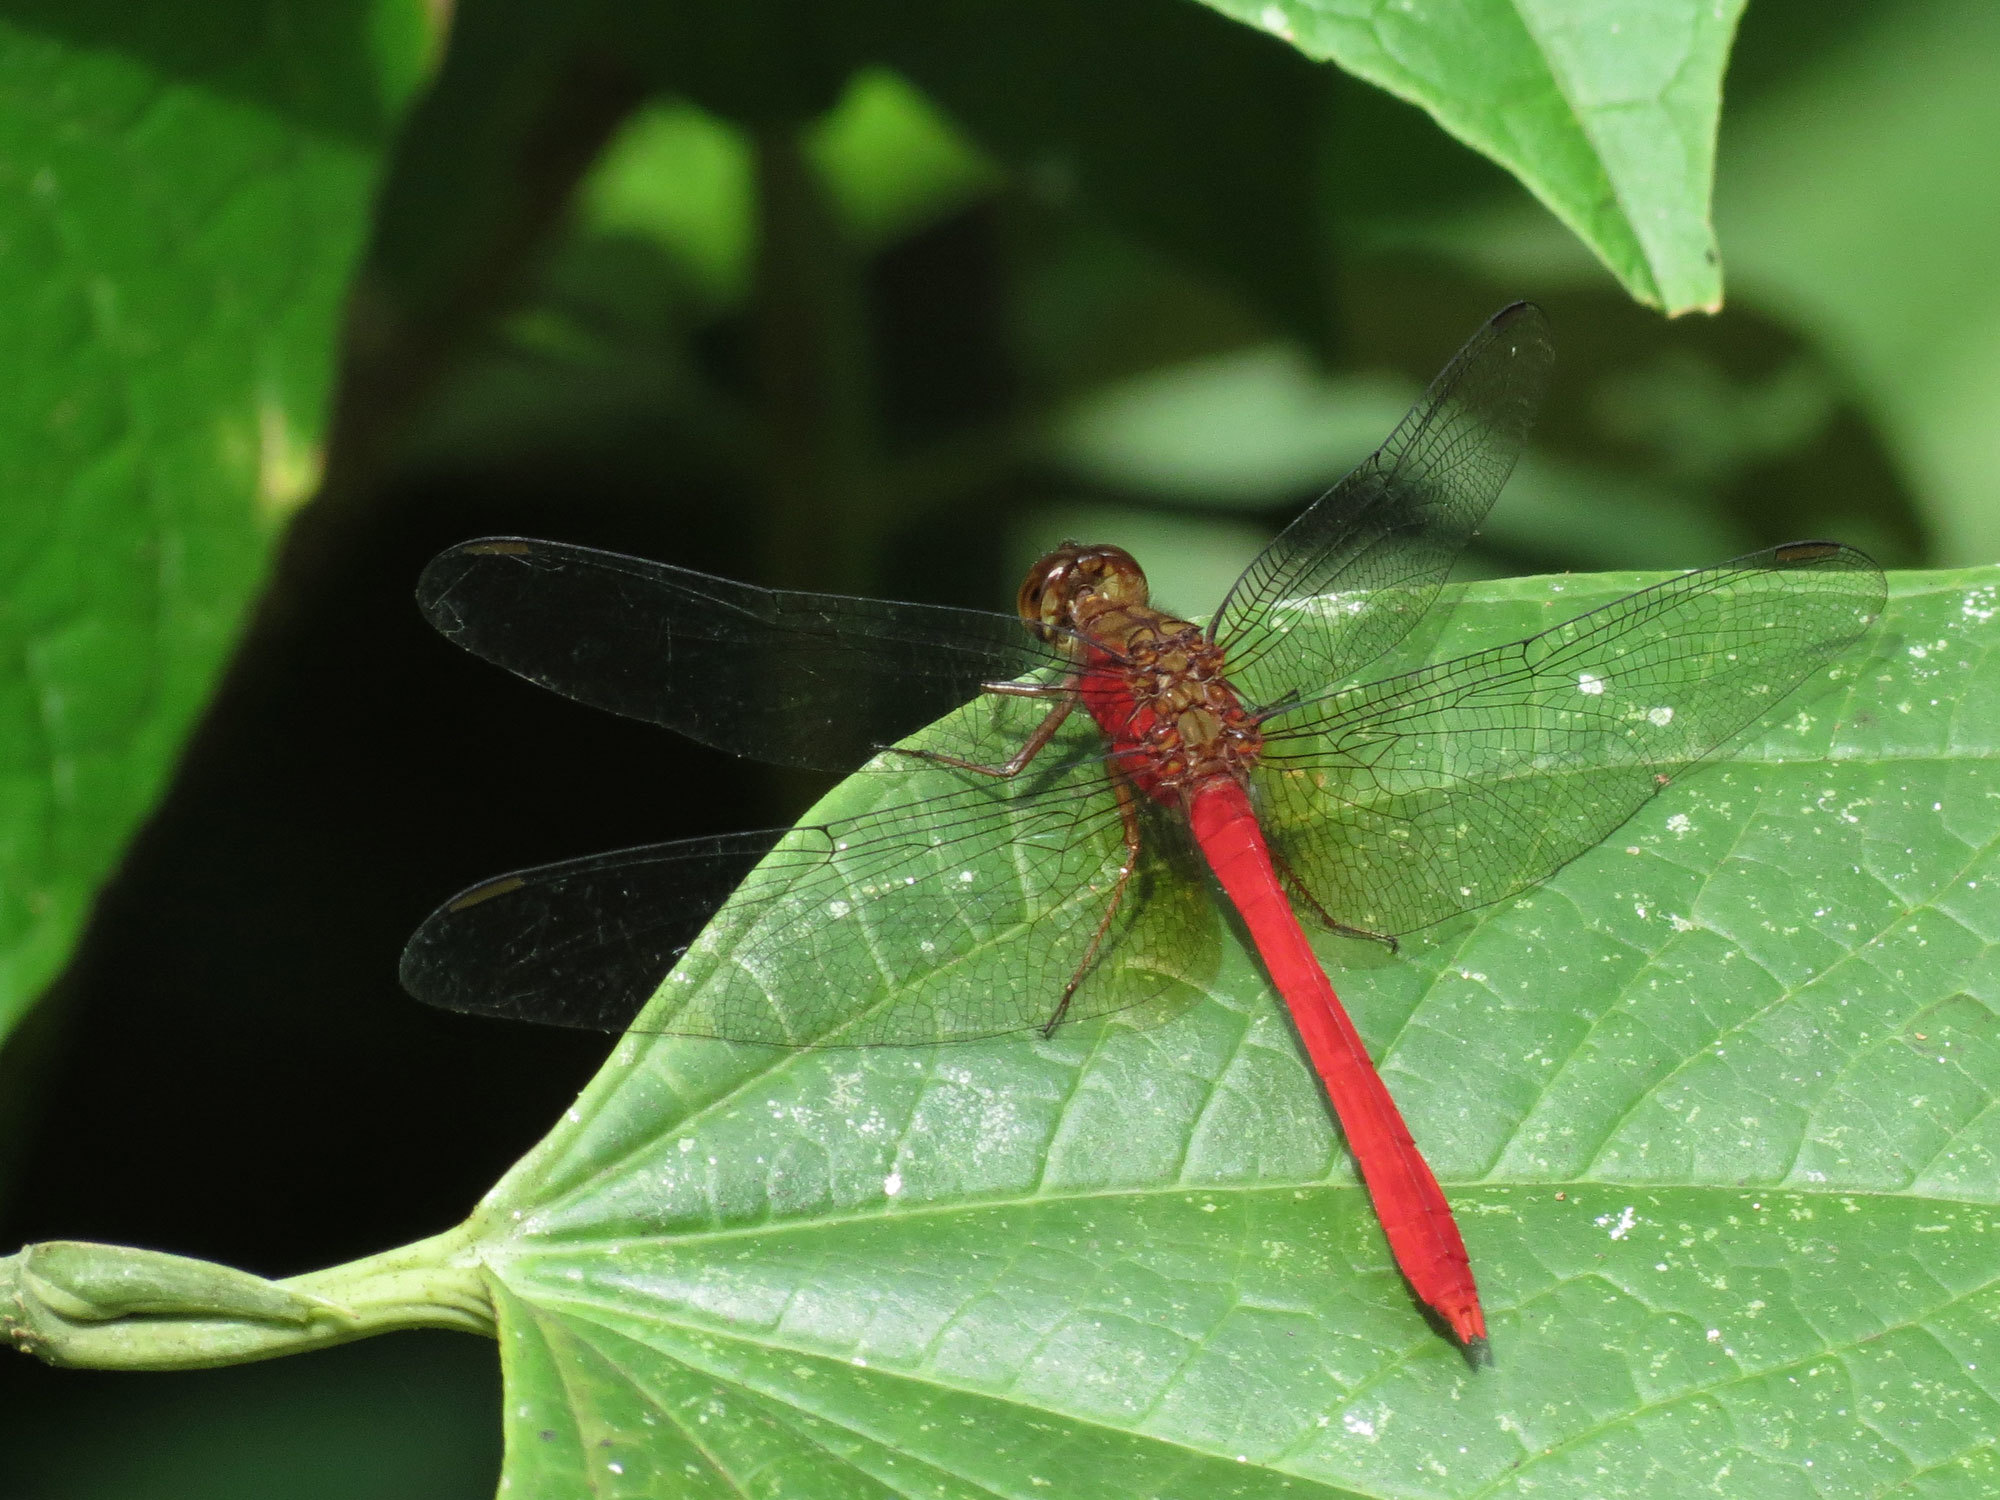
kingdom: Animalia
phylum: Arthropoda
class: Insecta
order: Odonata
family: Libellulidae
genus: Rhodopygia
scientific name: Rhodopygia hinei
